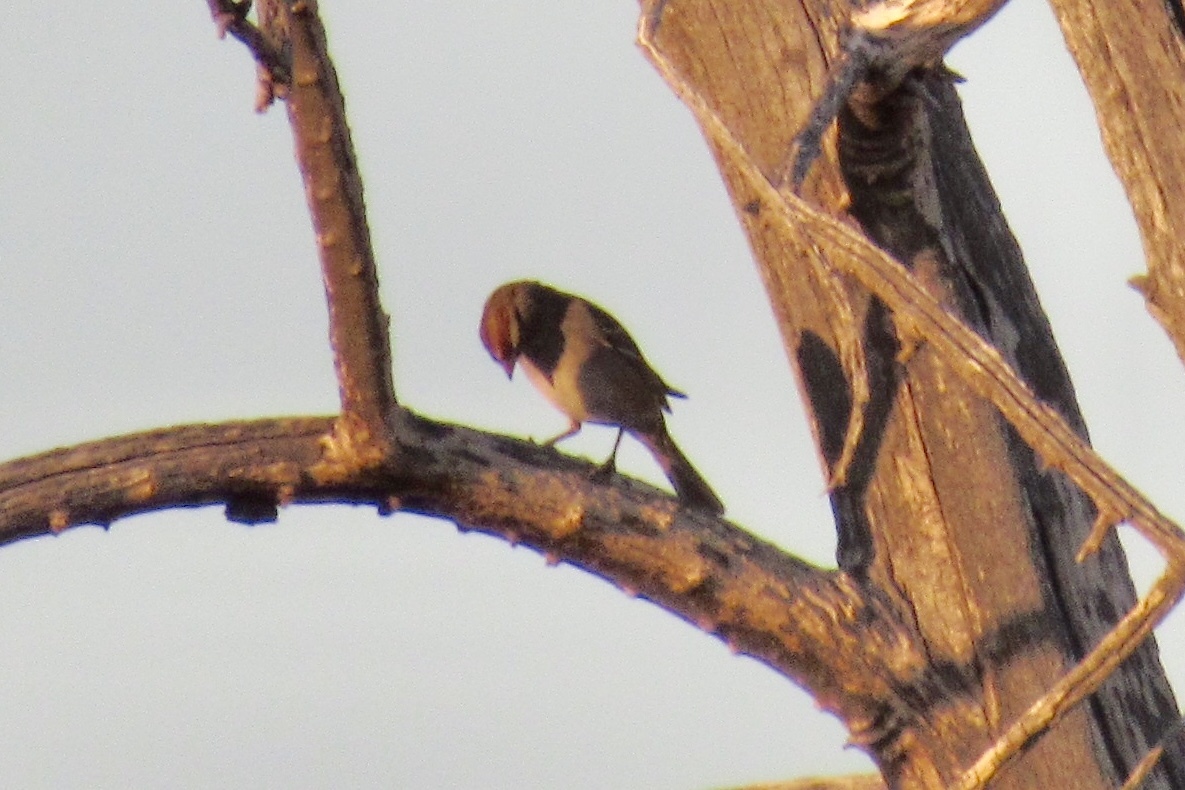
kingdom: Animalia
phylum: Chordata
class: Aves
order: Passeriformes
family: Passerellidae
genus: Zonotrichia
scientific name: Zonotrichia leucophrys
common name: White-crowned sparrow
